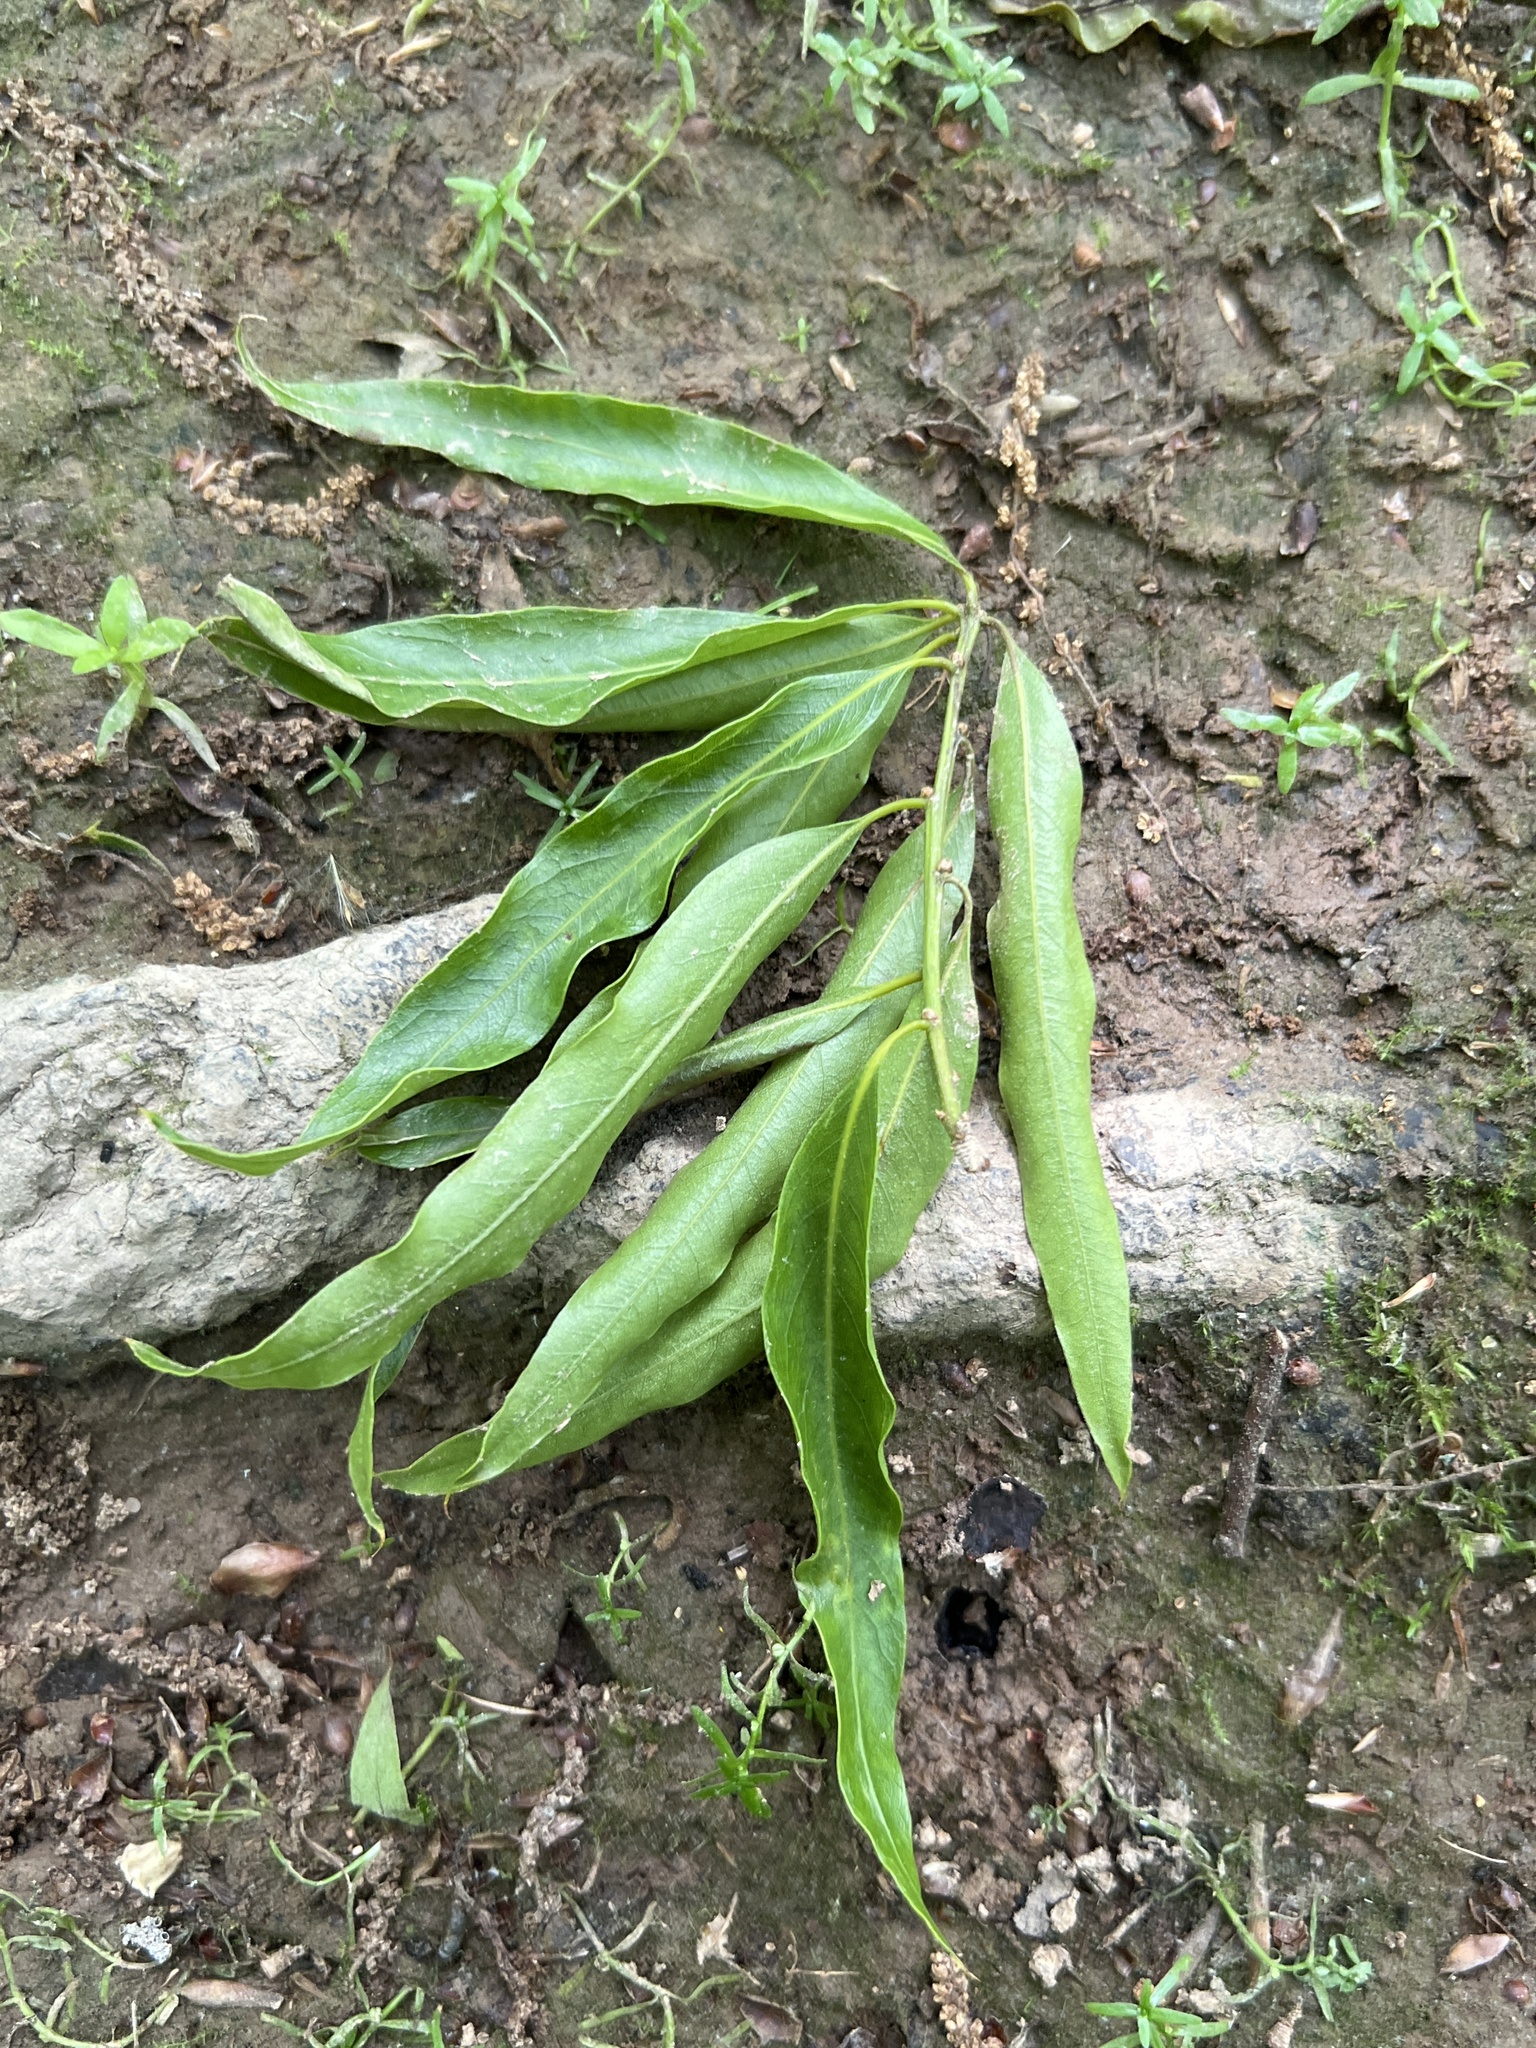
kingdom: Plantae
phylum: Tracheophyta
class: Magnoliopsida
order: Fagales
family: Fagaceae
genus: Quercus
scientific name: Quercus phellos
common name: Willow oak
